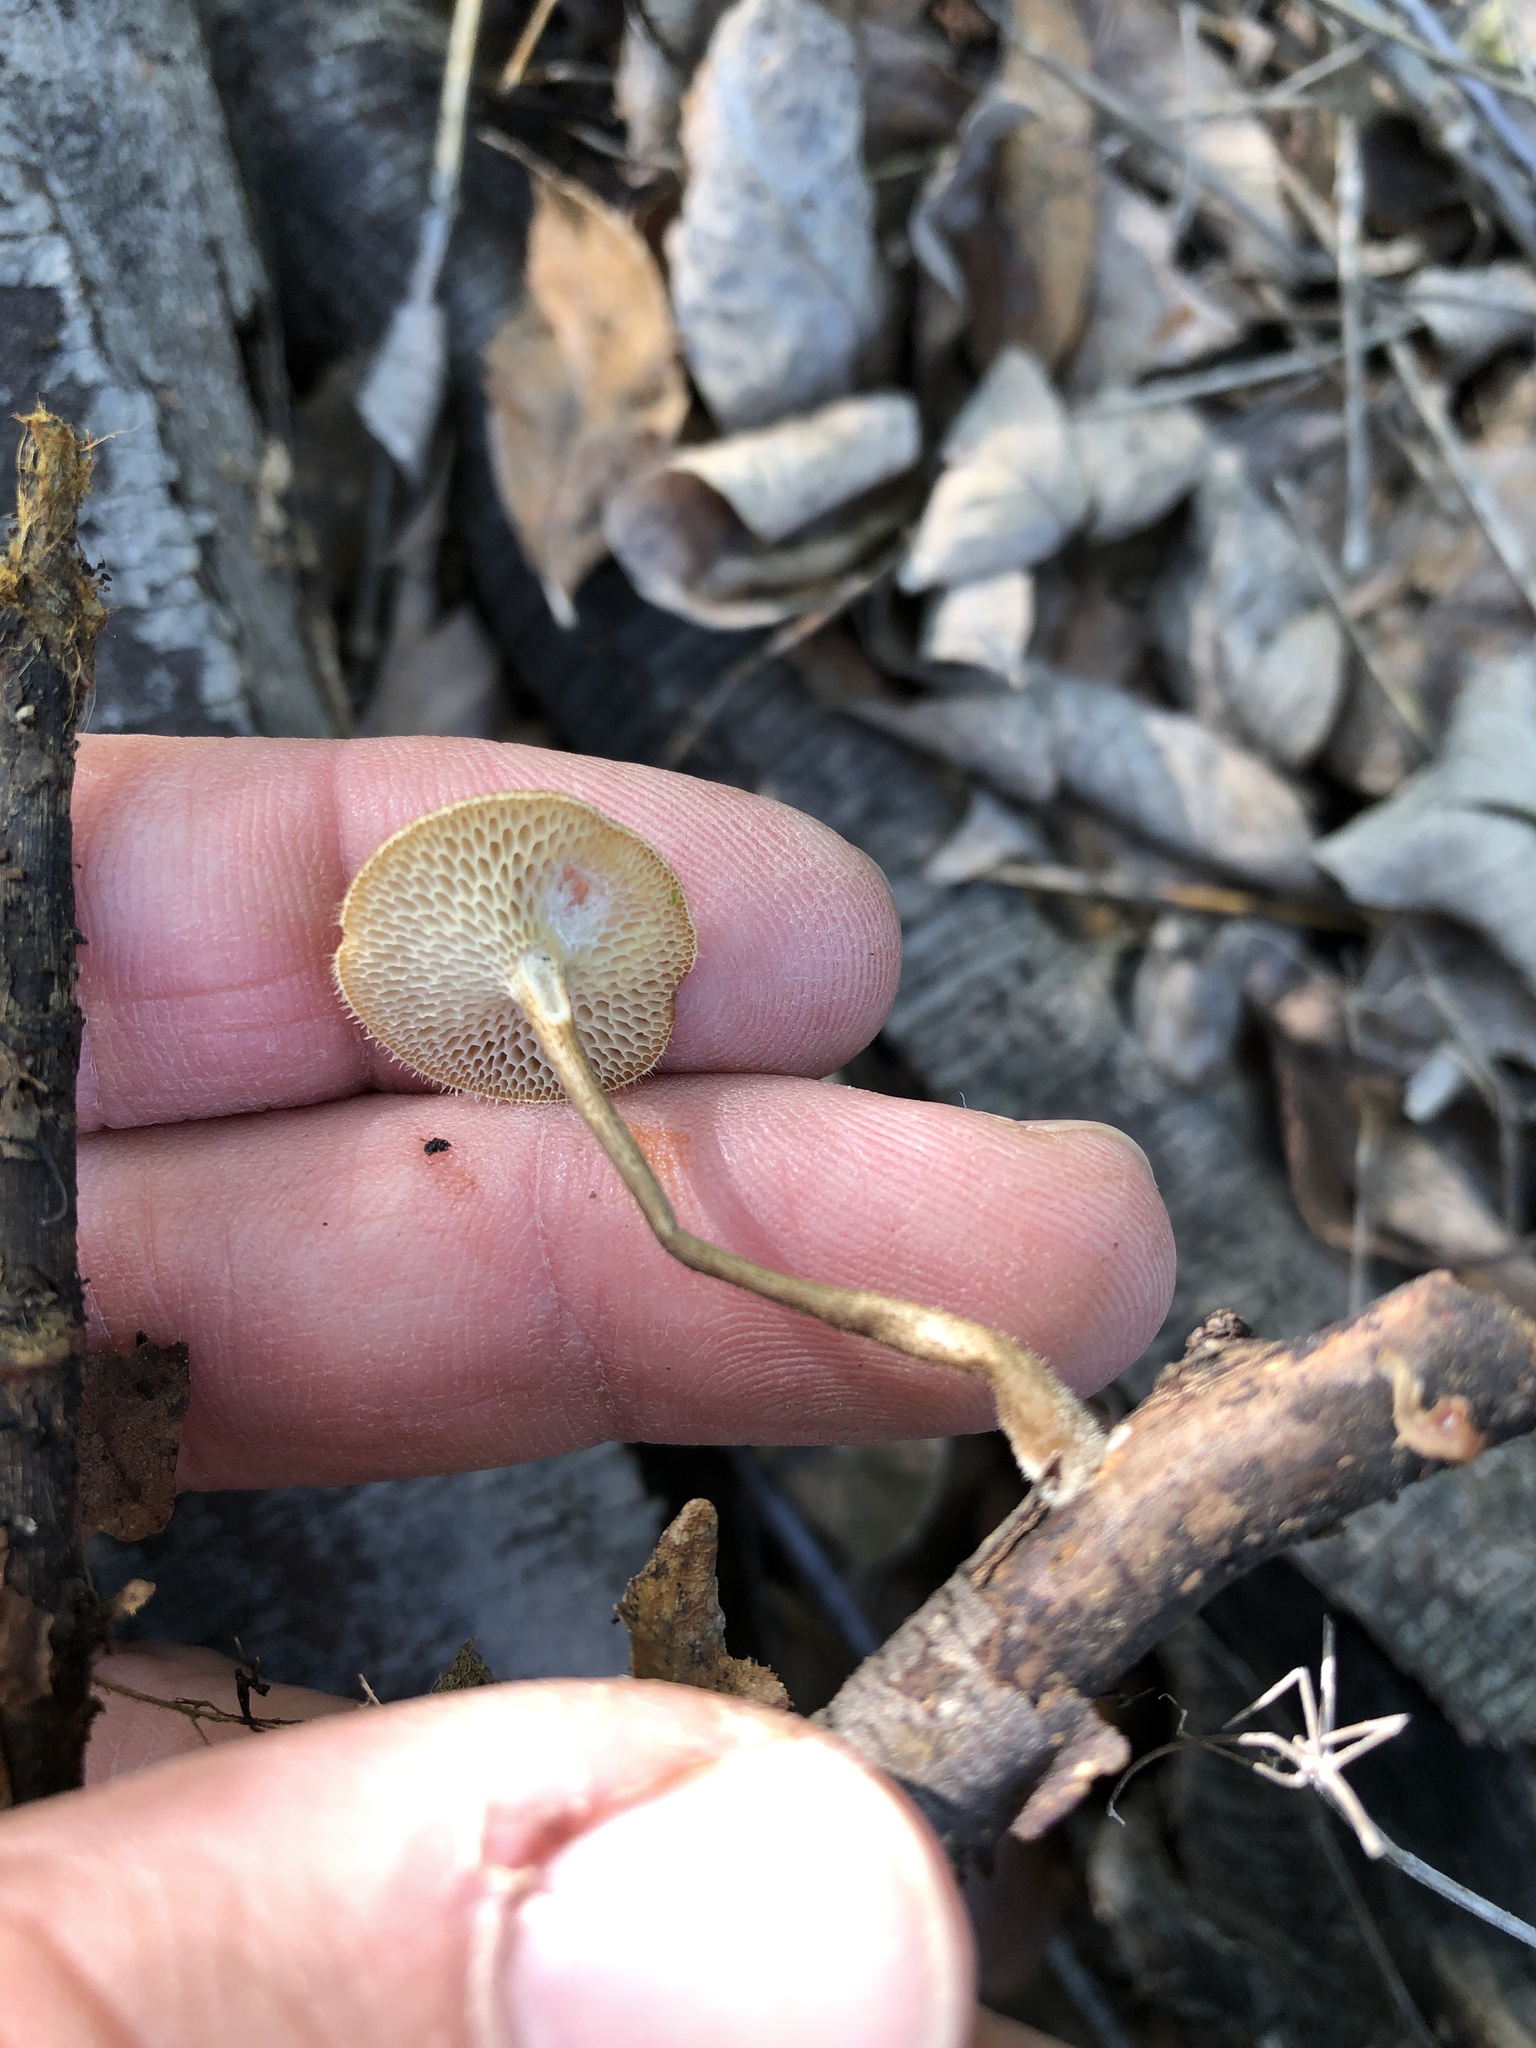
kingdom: Fungi
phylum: Basidiomycota
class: Agaricomycetes
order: Polyporales
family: Polyporaceae
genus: Lentinus
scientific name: Lentinus arcularius
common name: Spring polypore
